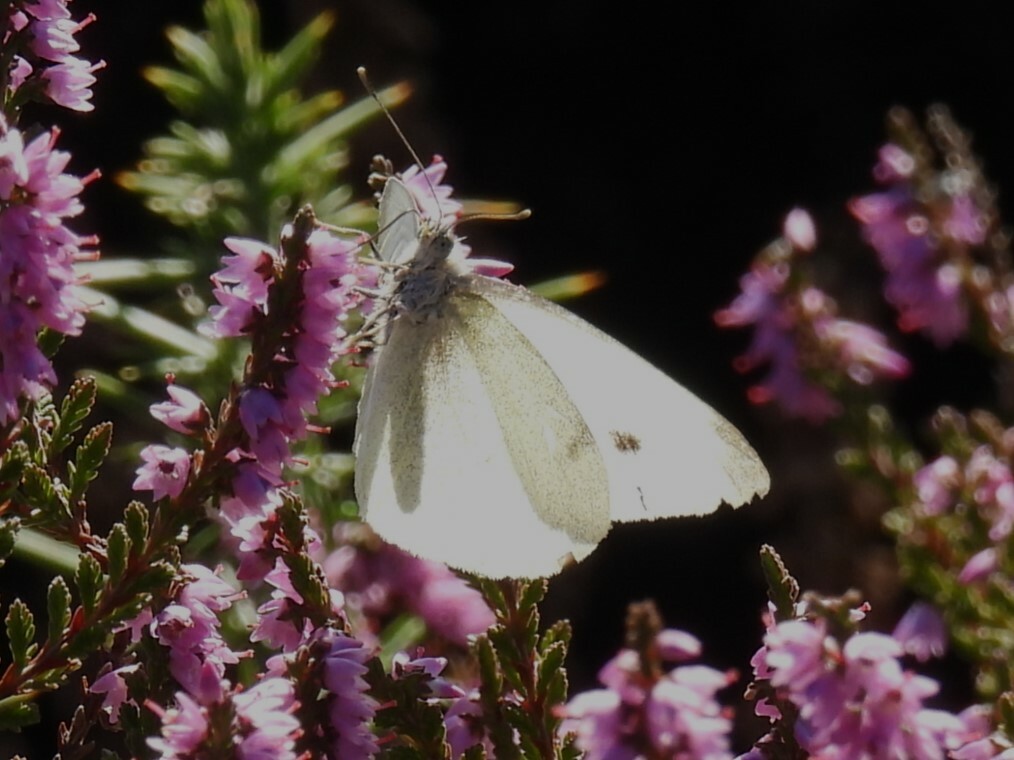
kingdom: Animalia
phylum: Arthropoda
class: Insecta
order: Lepidoptera
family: Pieridae
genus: Pieris
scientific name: Pieris rapae
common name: Small white
